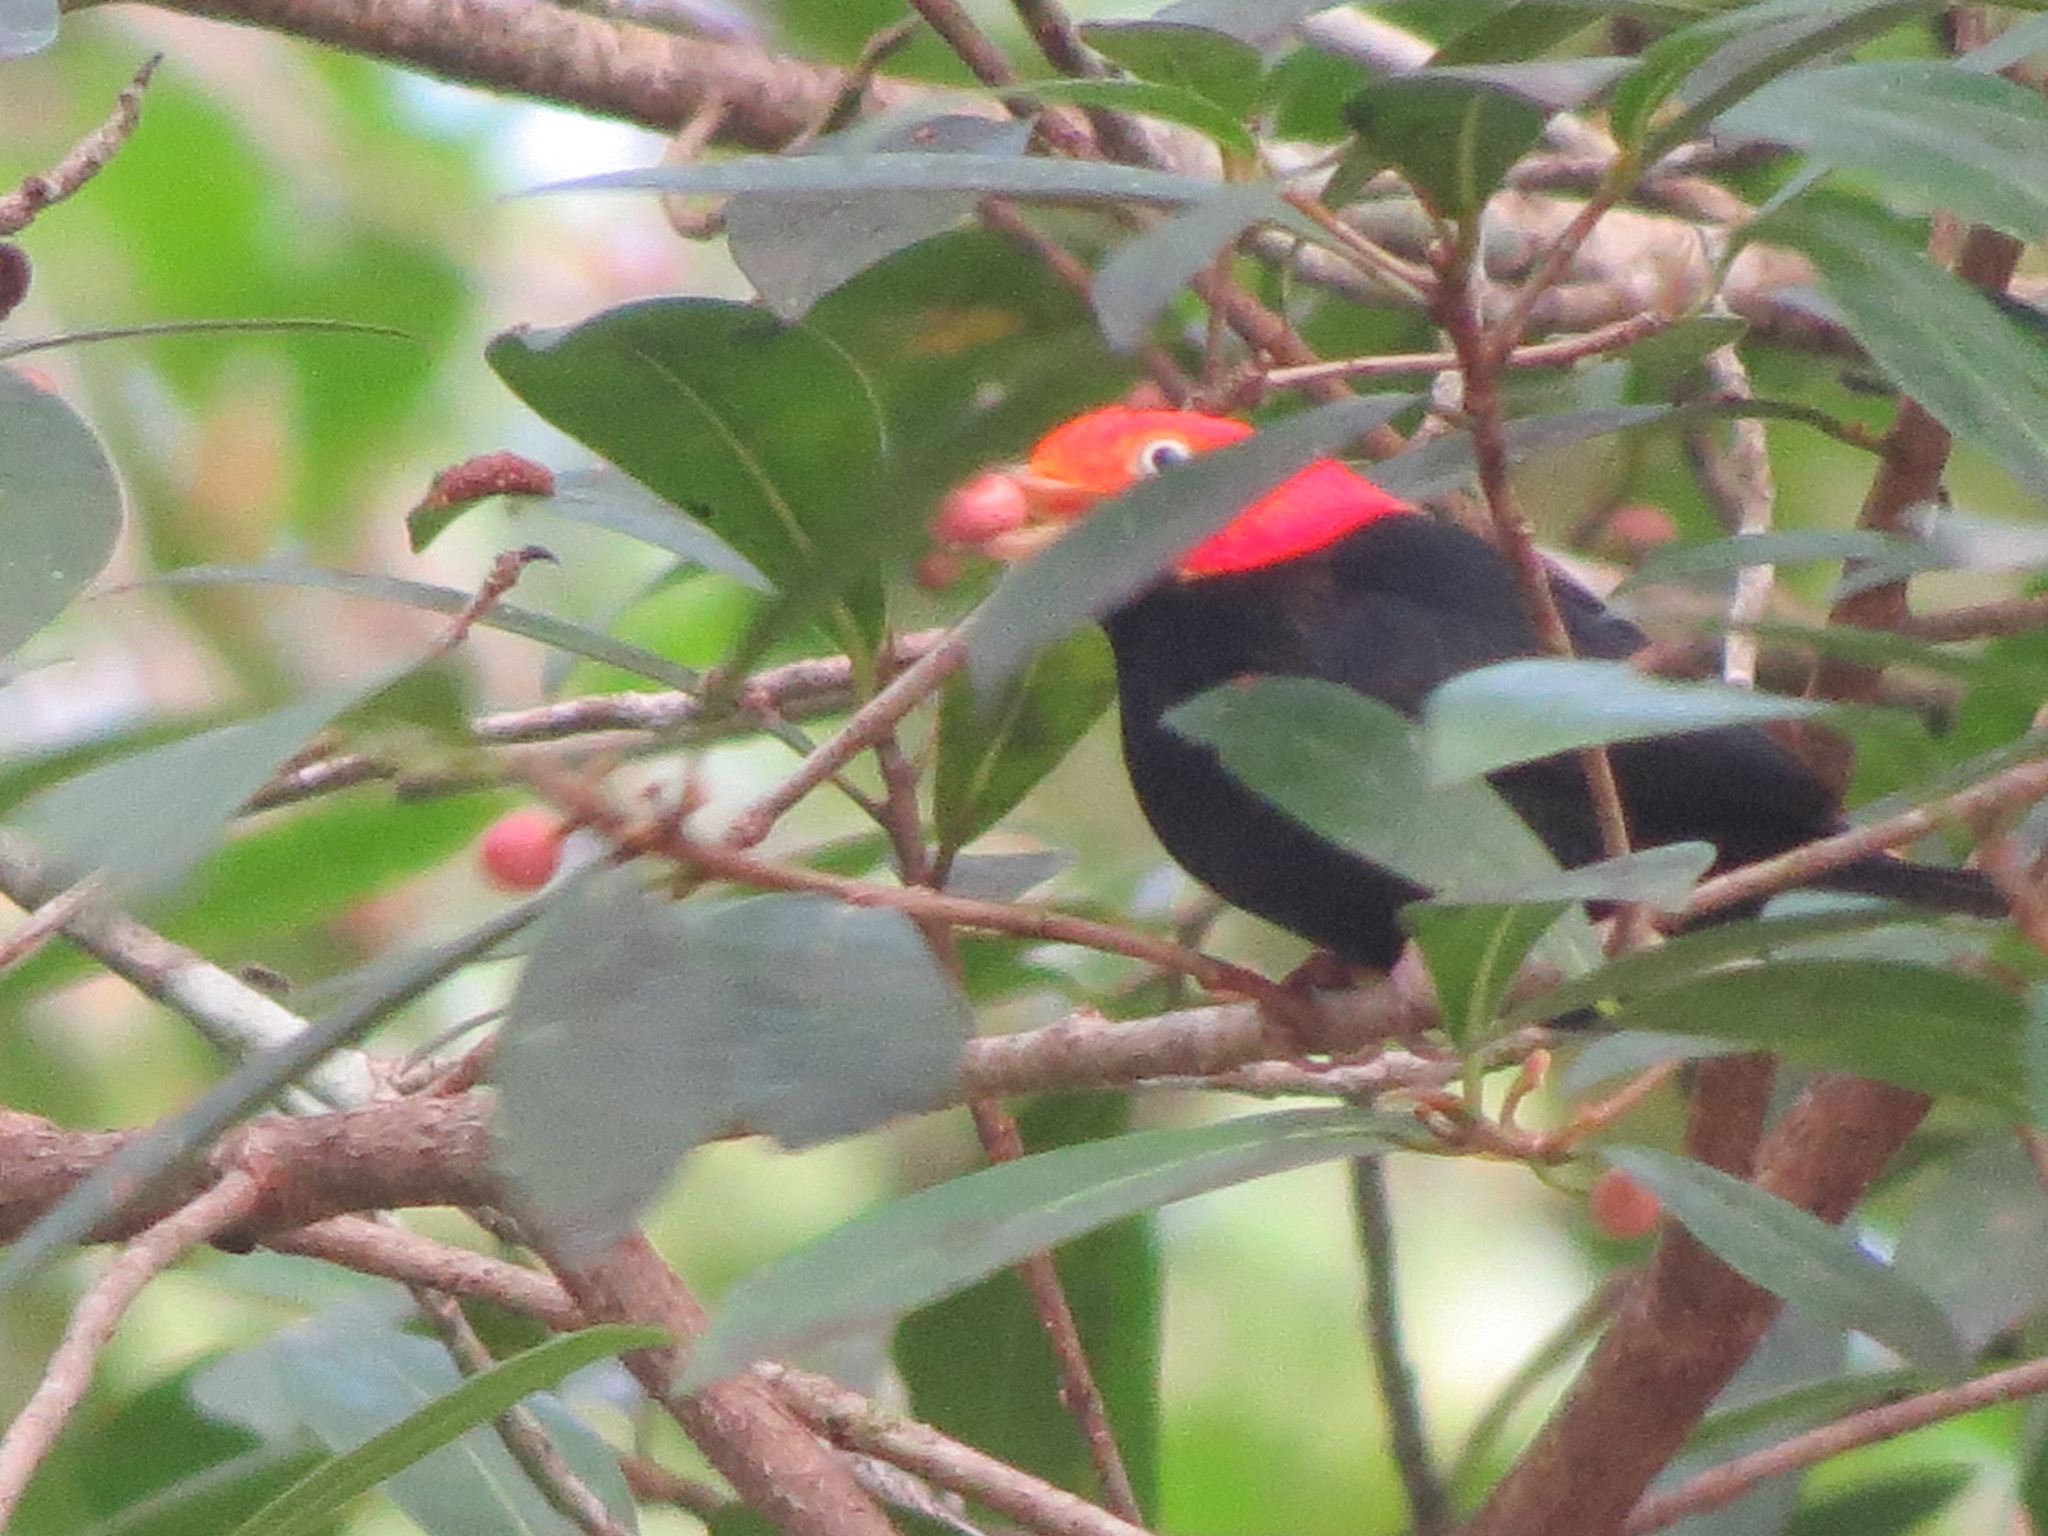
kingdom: Animalia
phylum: Chordata
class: Aves
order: Passeriformes
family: Pipridae
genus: Pipra
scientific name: Pipra mentalis
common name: Red-capped manakin
